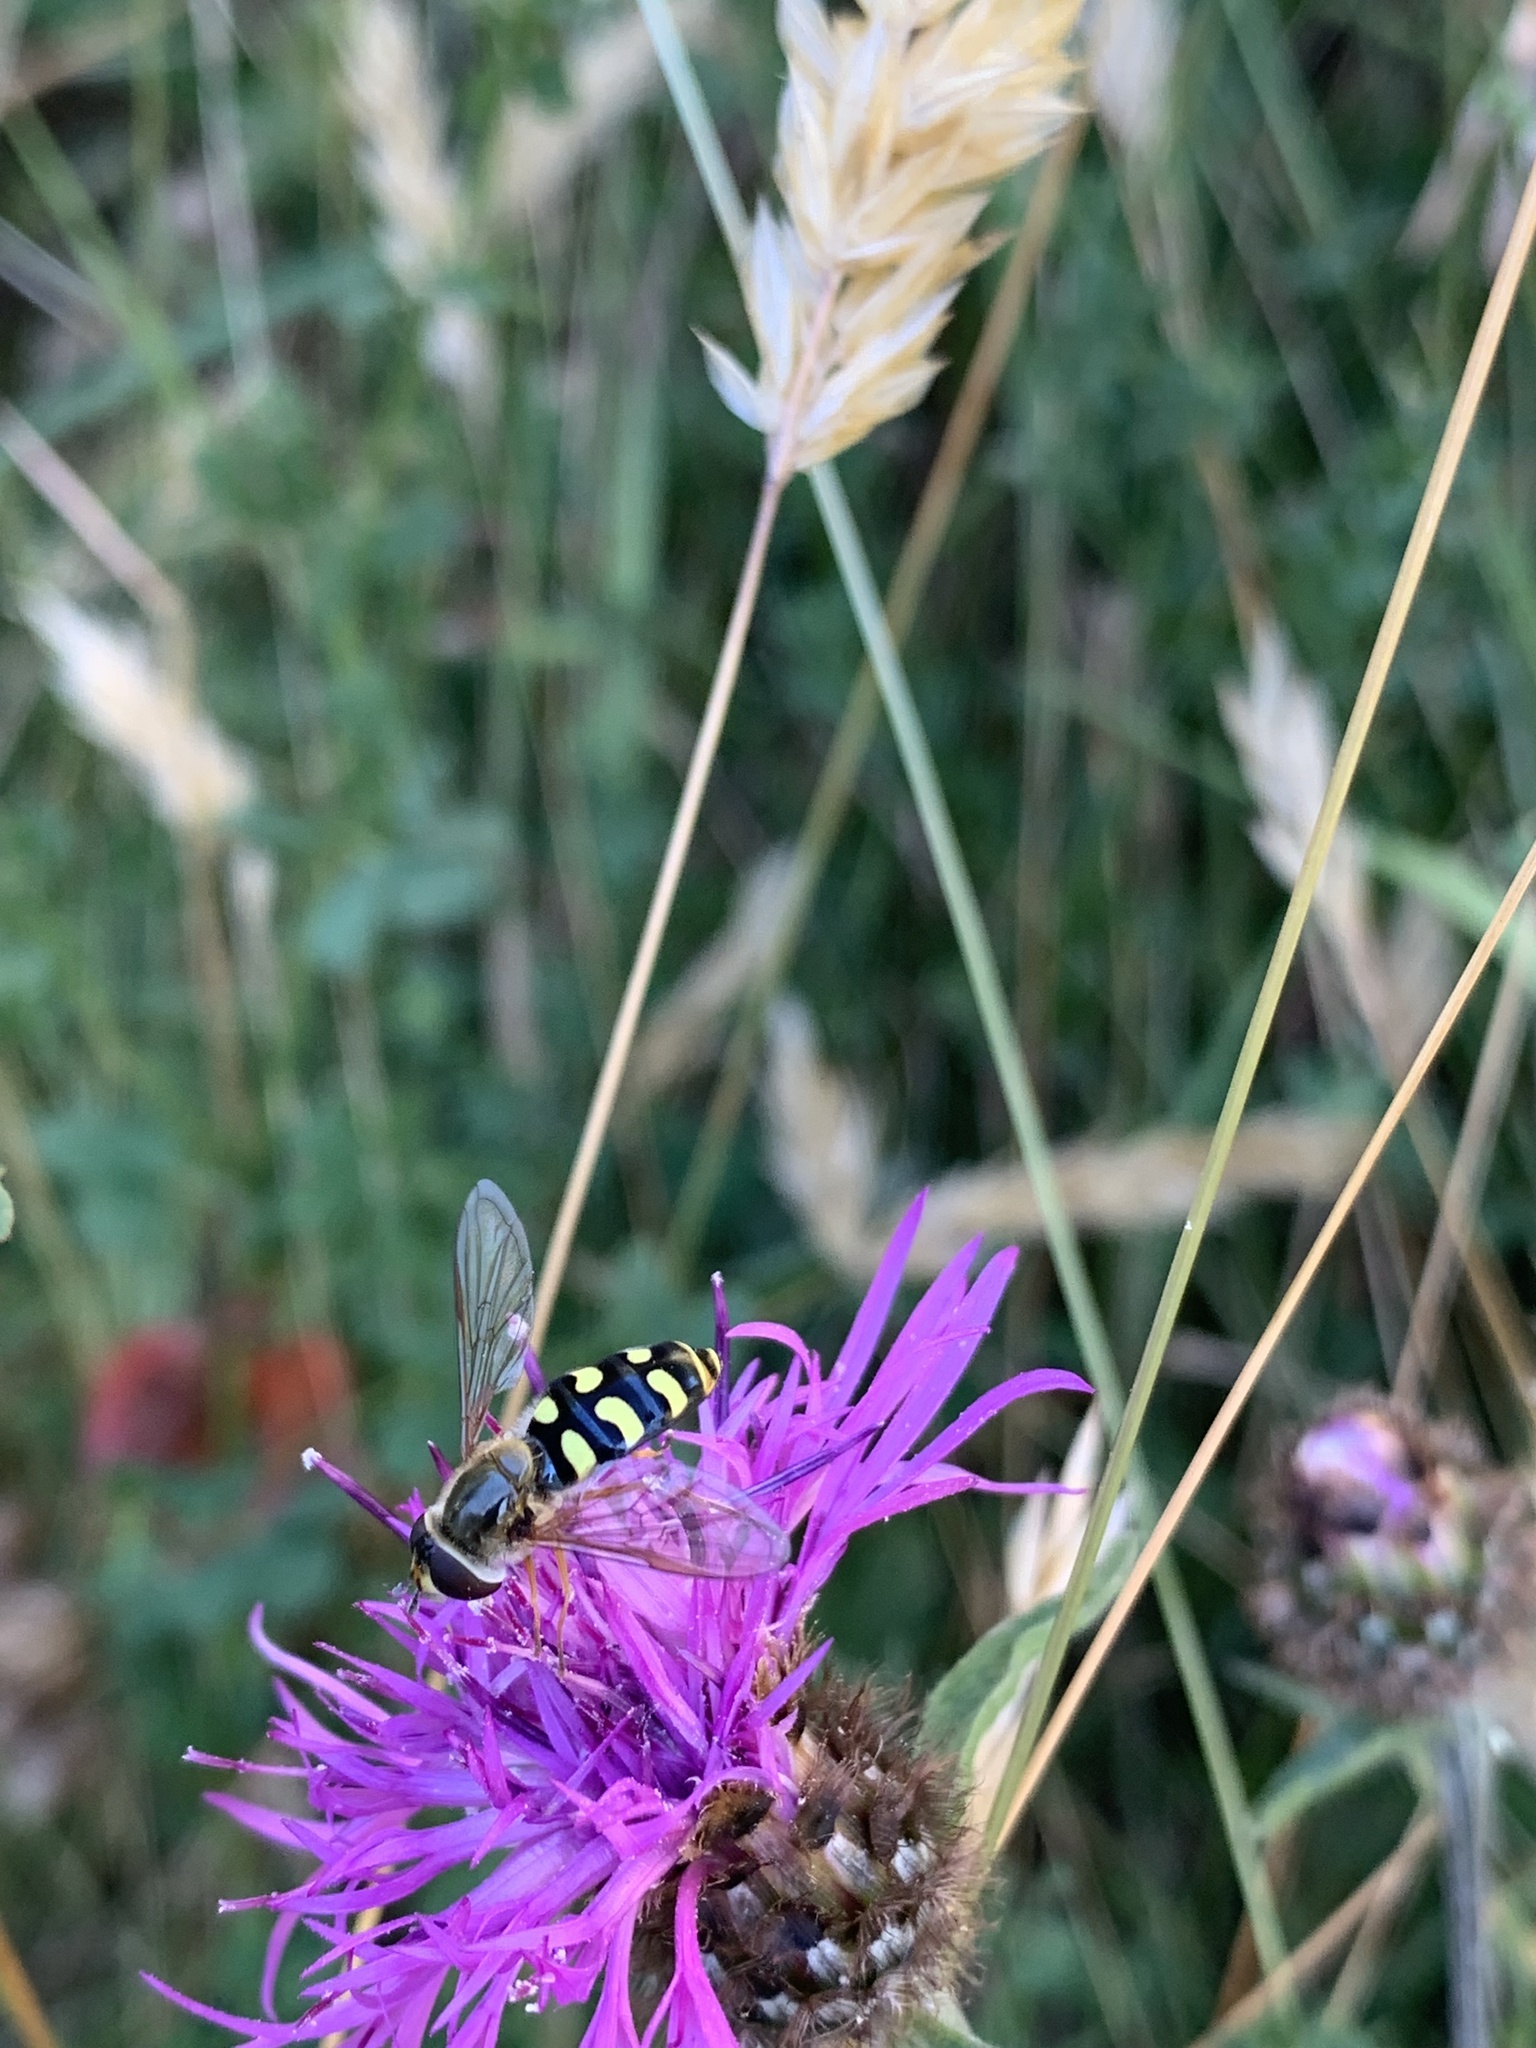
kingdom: Animalia
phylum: Arthropoda
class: Insecta
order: Diptera
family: Syrphidae
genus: Eupeodes
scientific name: Eupeodes luniger
